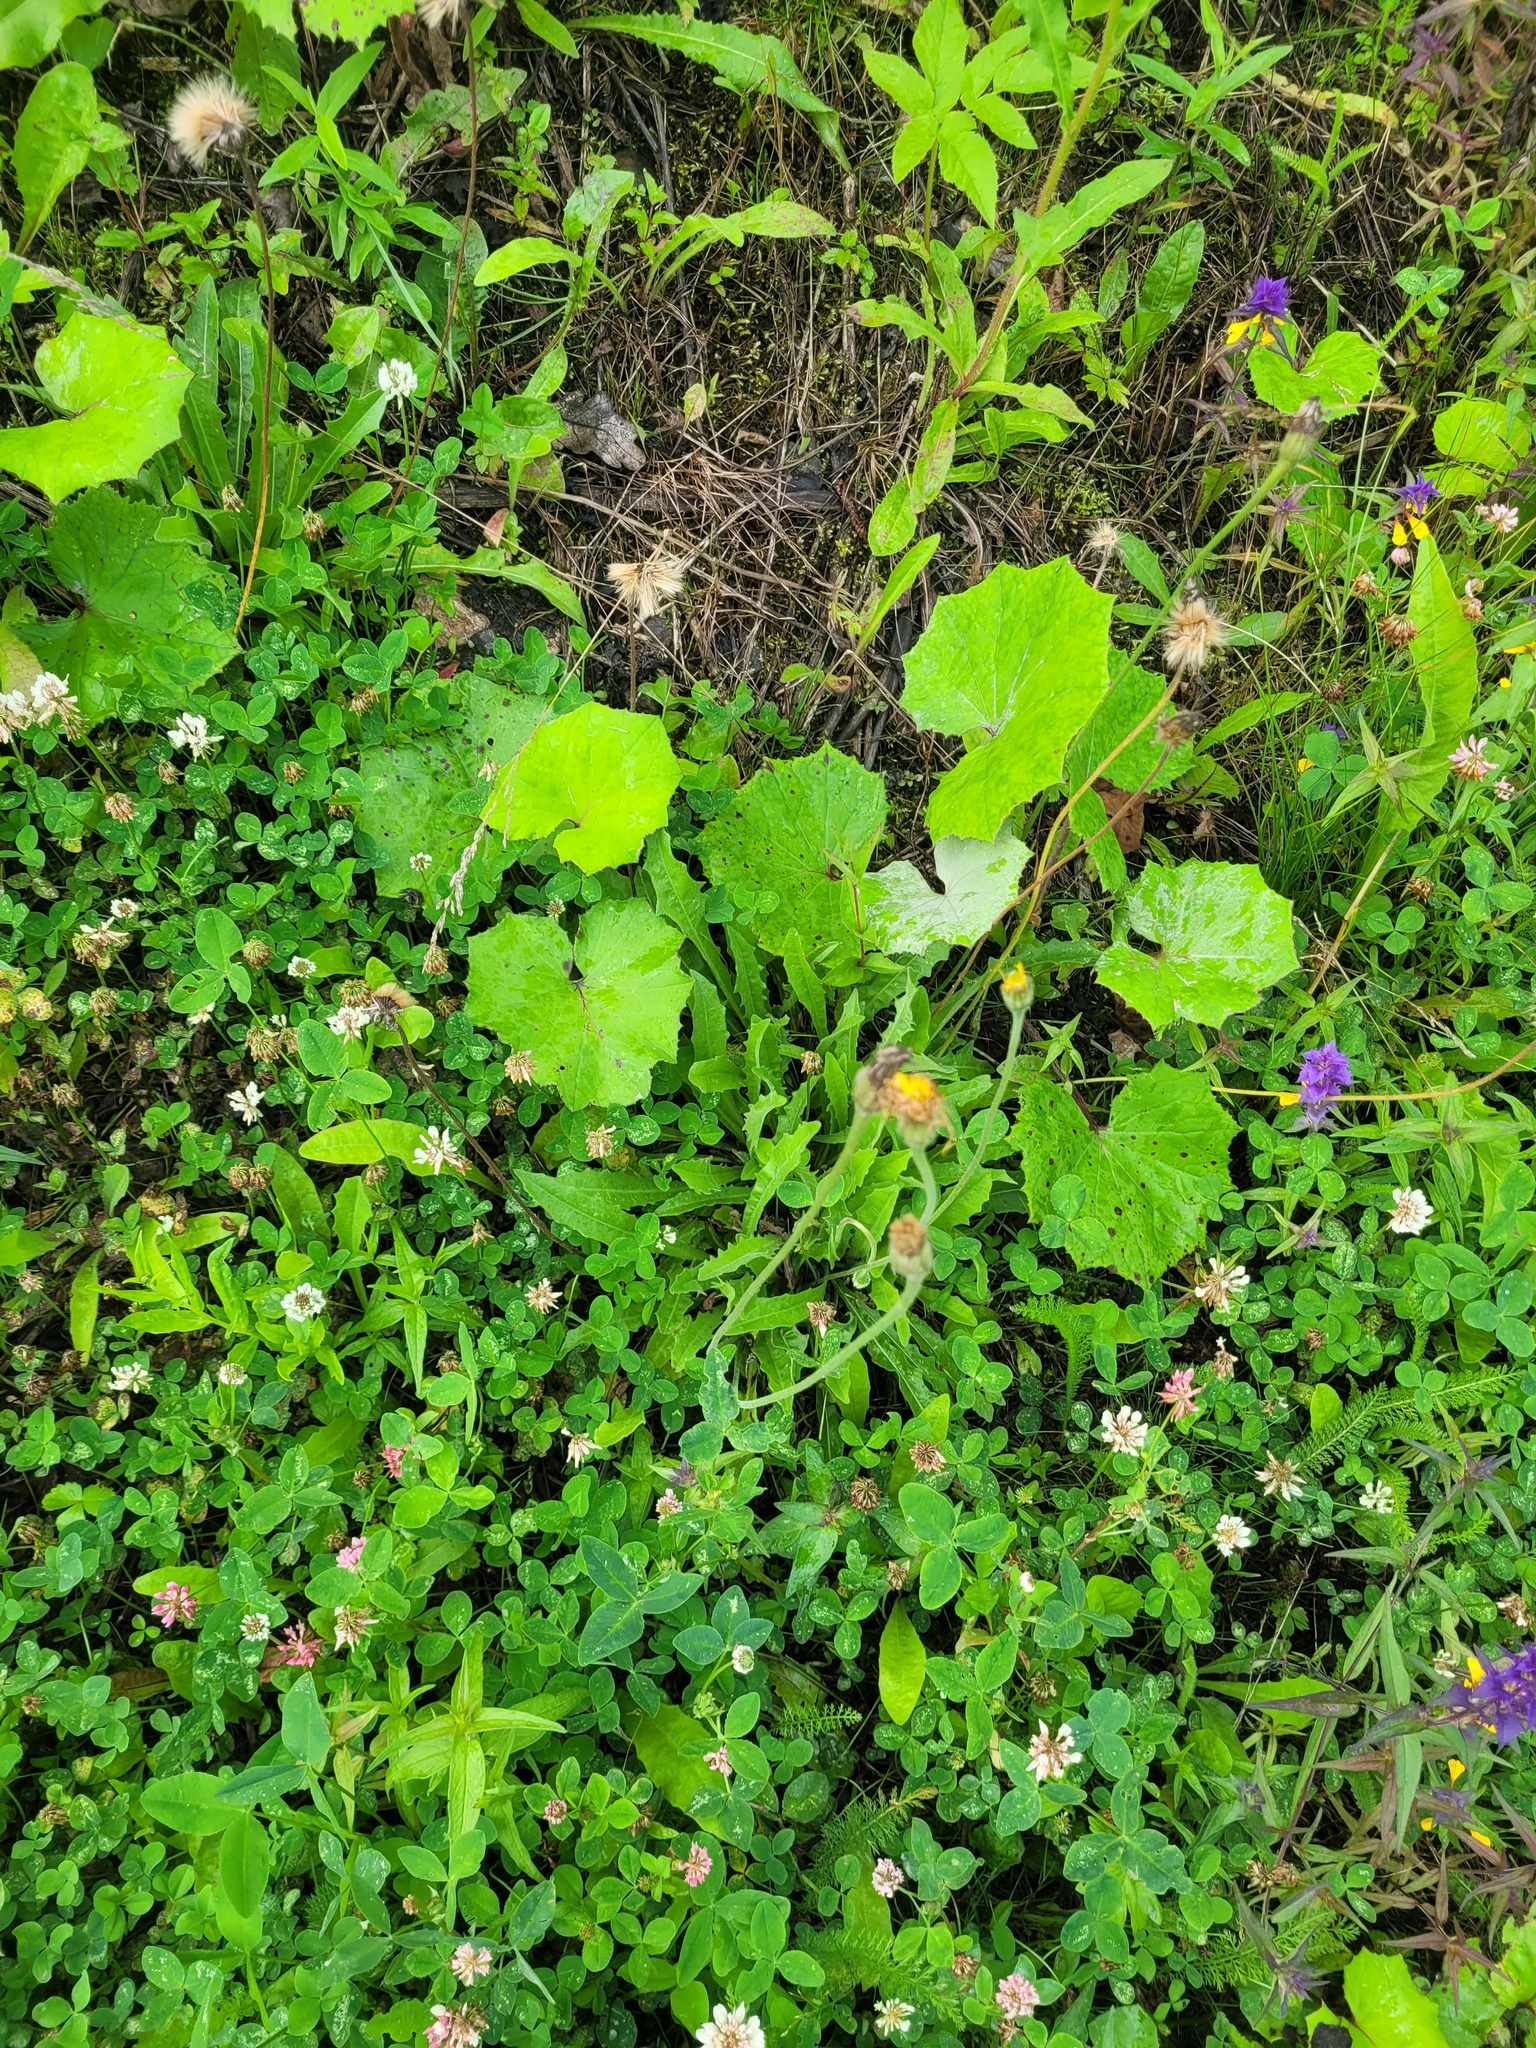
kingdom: Plantae
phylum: Tracheophyta
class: Magnoliopsida
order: Asterales
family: Asteraceae
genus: Leontodon
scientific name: Leontodon hispidus
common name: Rough hawkbit
